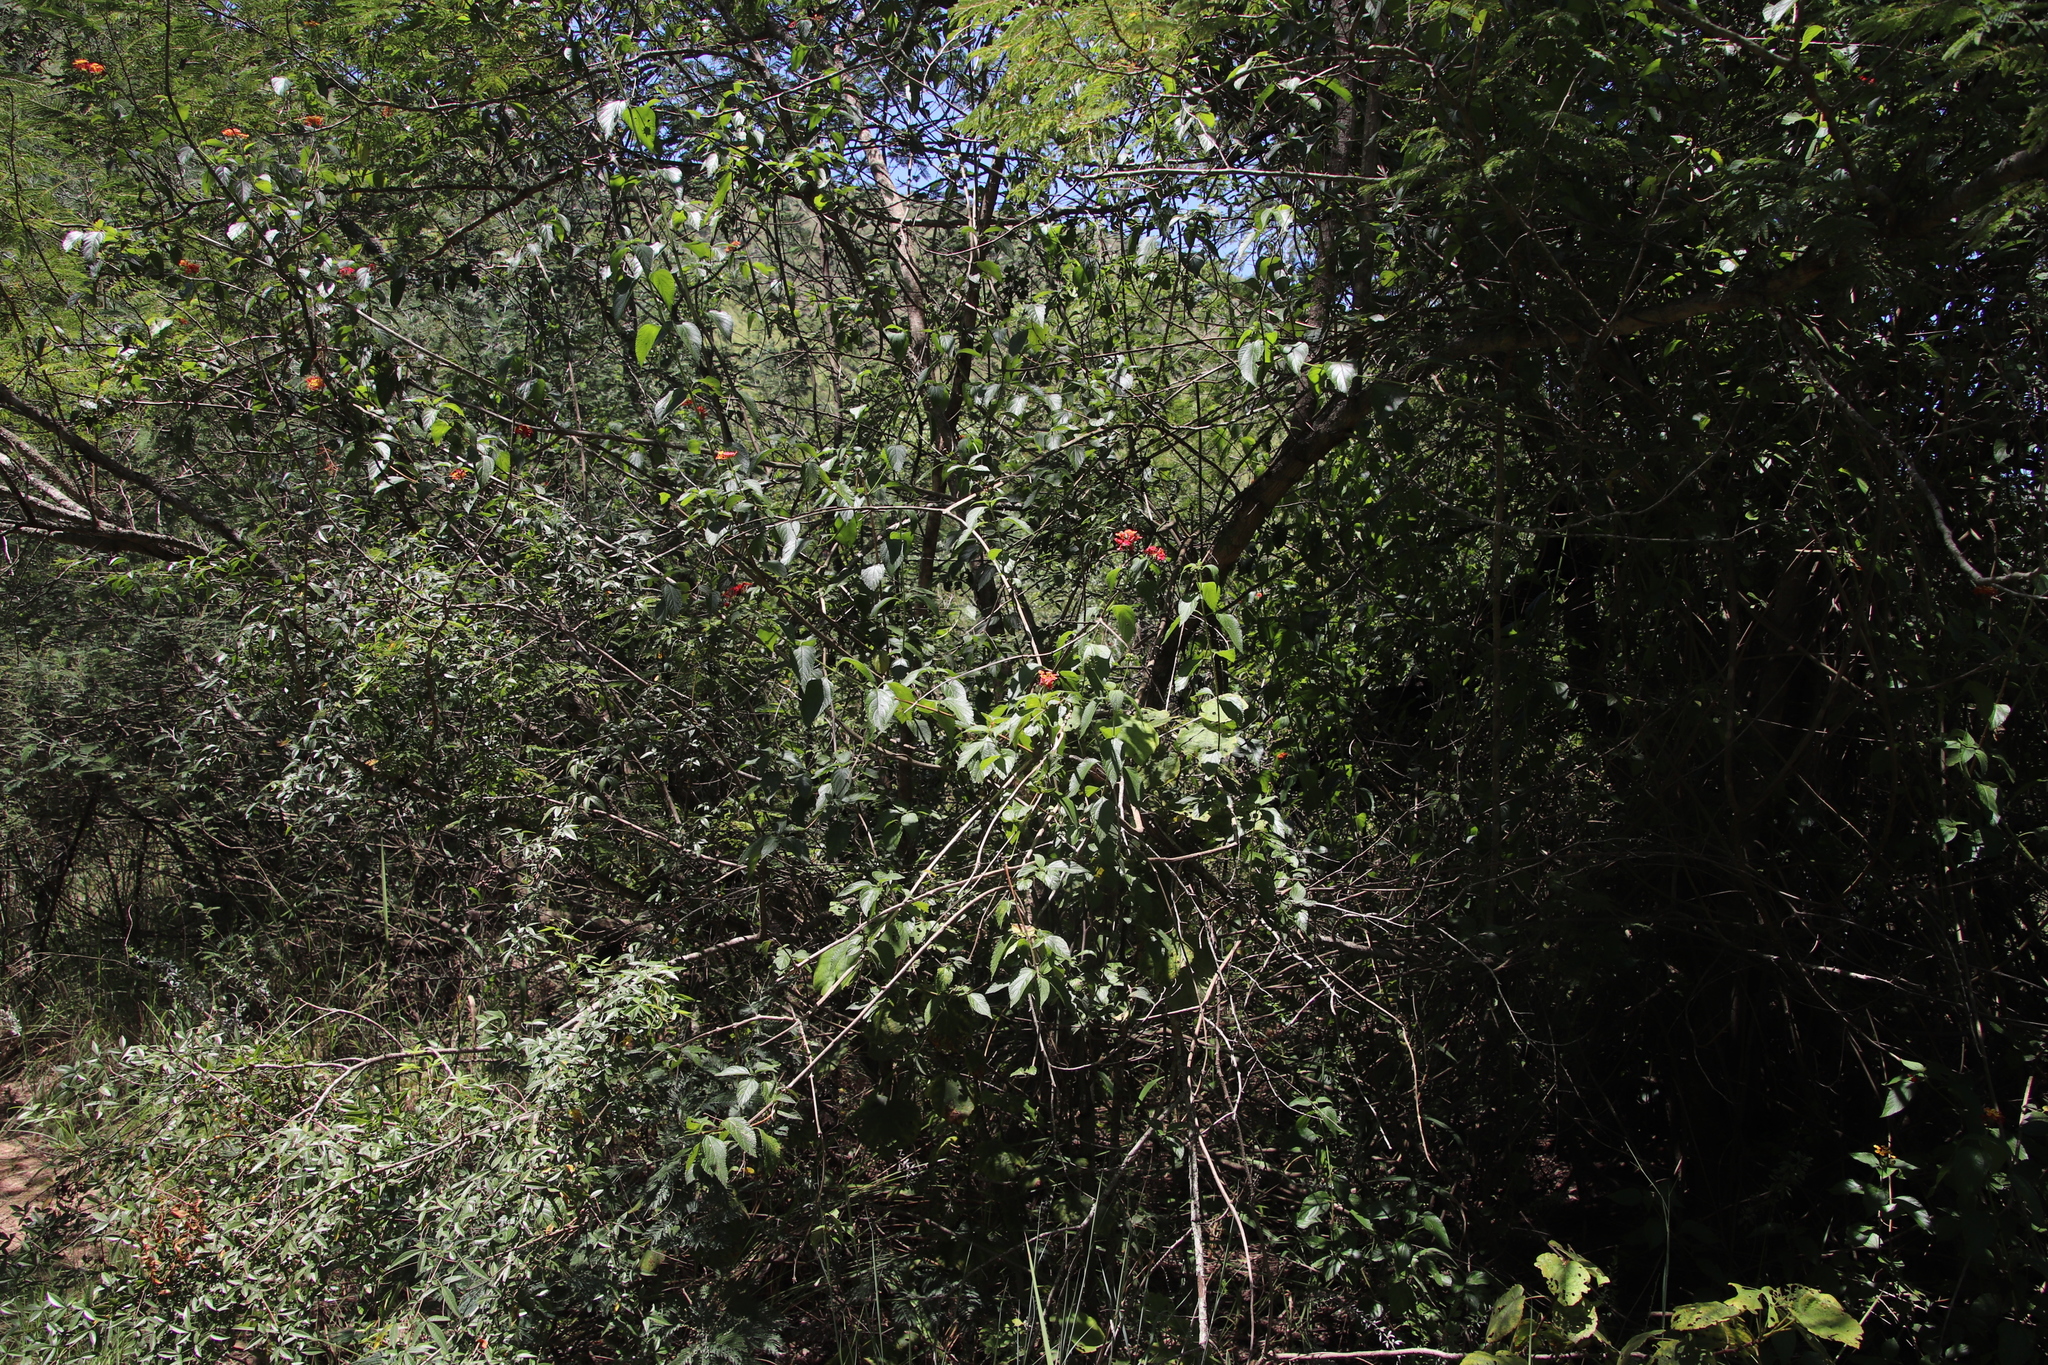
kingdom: Plantae
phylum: Tracheophyta
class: Magnoliopsida
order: Lamiales
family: Verbenaceae
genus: Lantana
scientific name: Lantana camara
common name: Lantana
